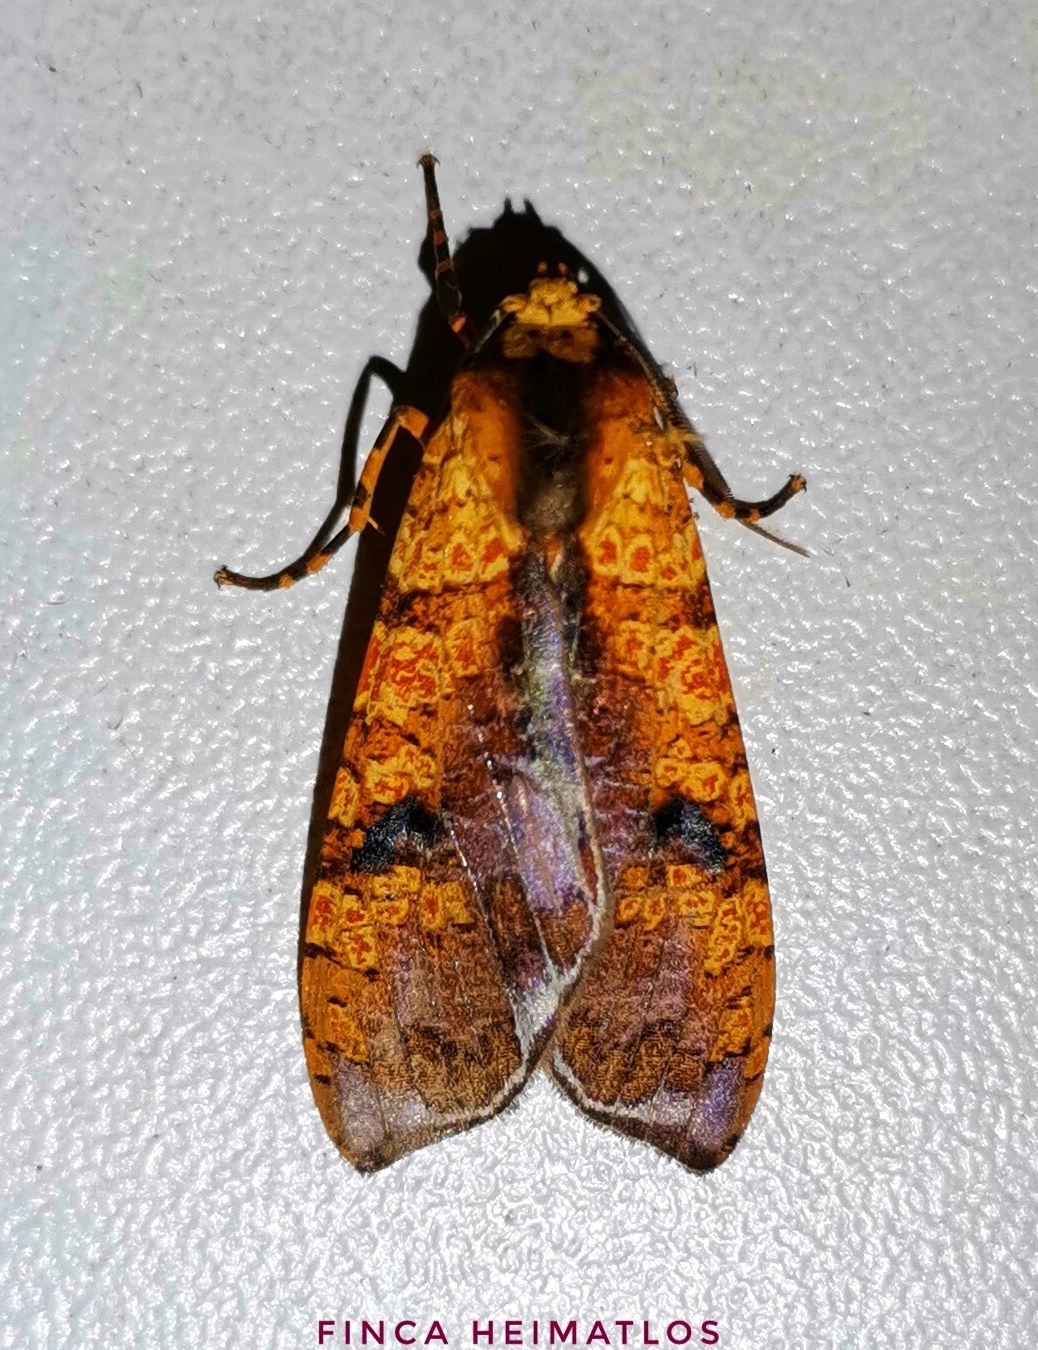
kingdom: Animalia
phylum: Arthropoda
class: Insecta
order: Lepidoptera
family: Erebidae
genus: Graphea
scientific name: Graphea marmorea
